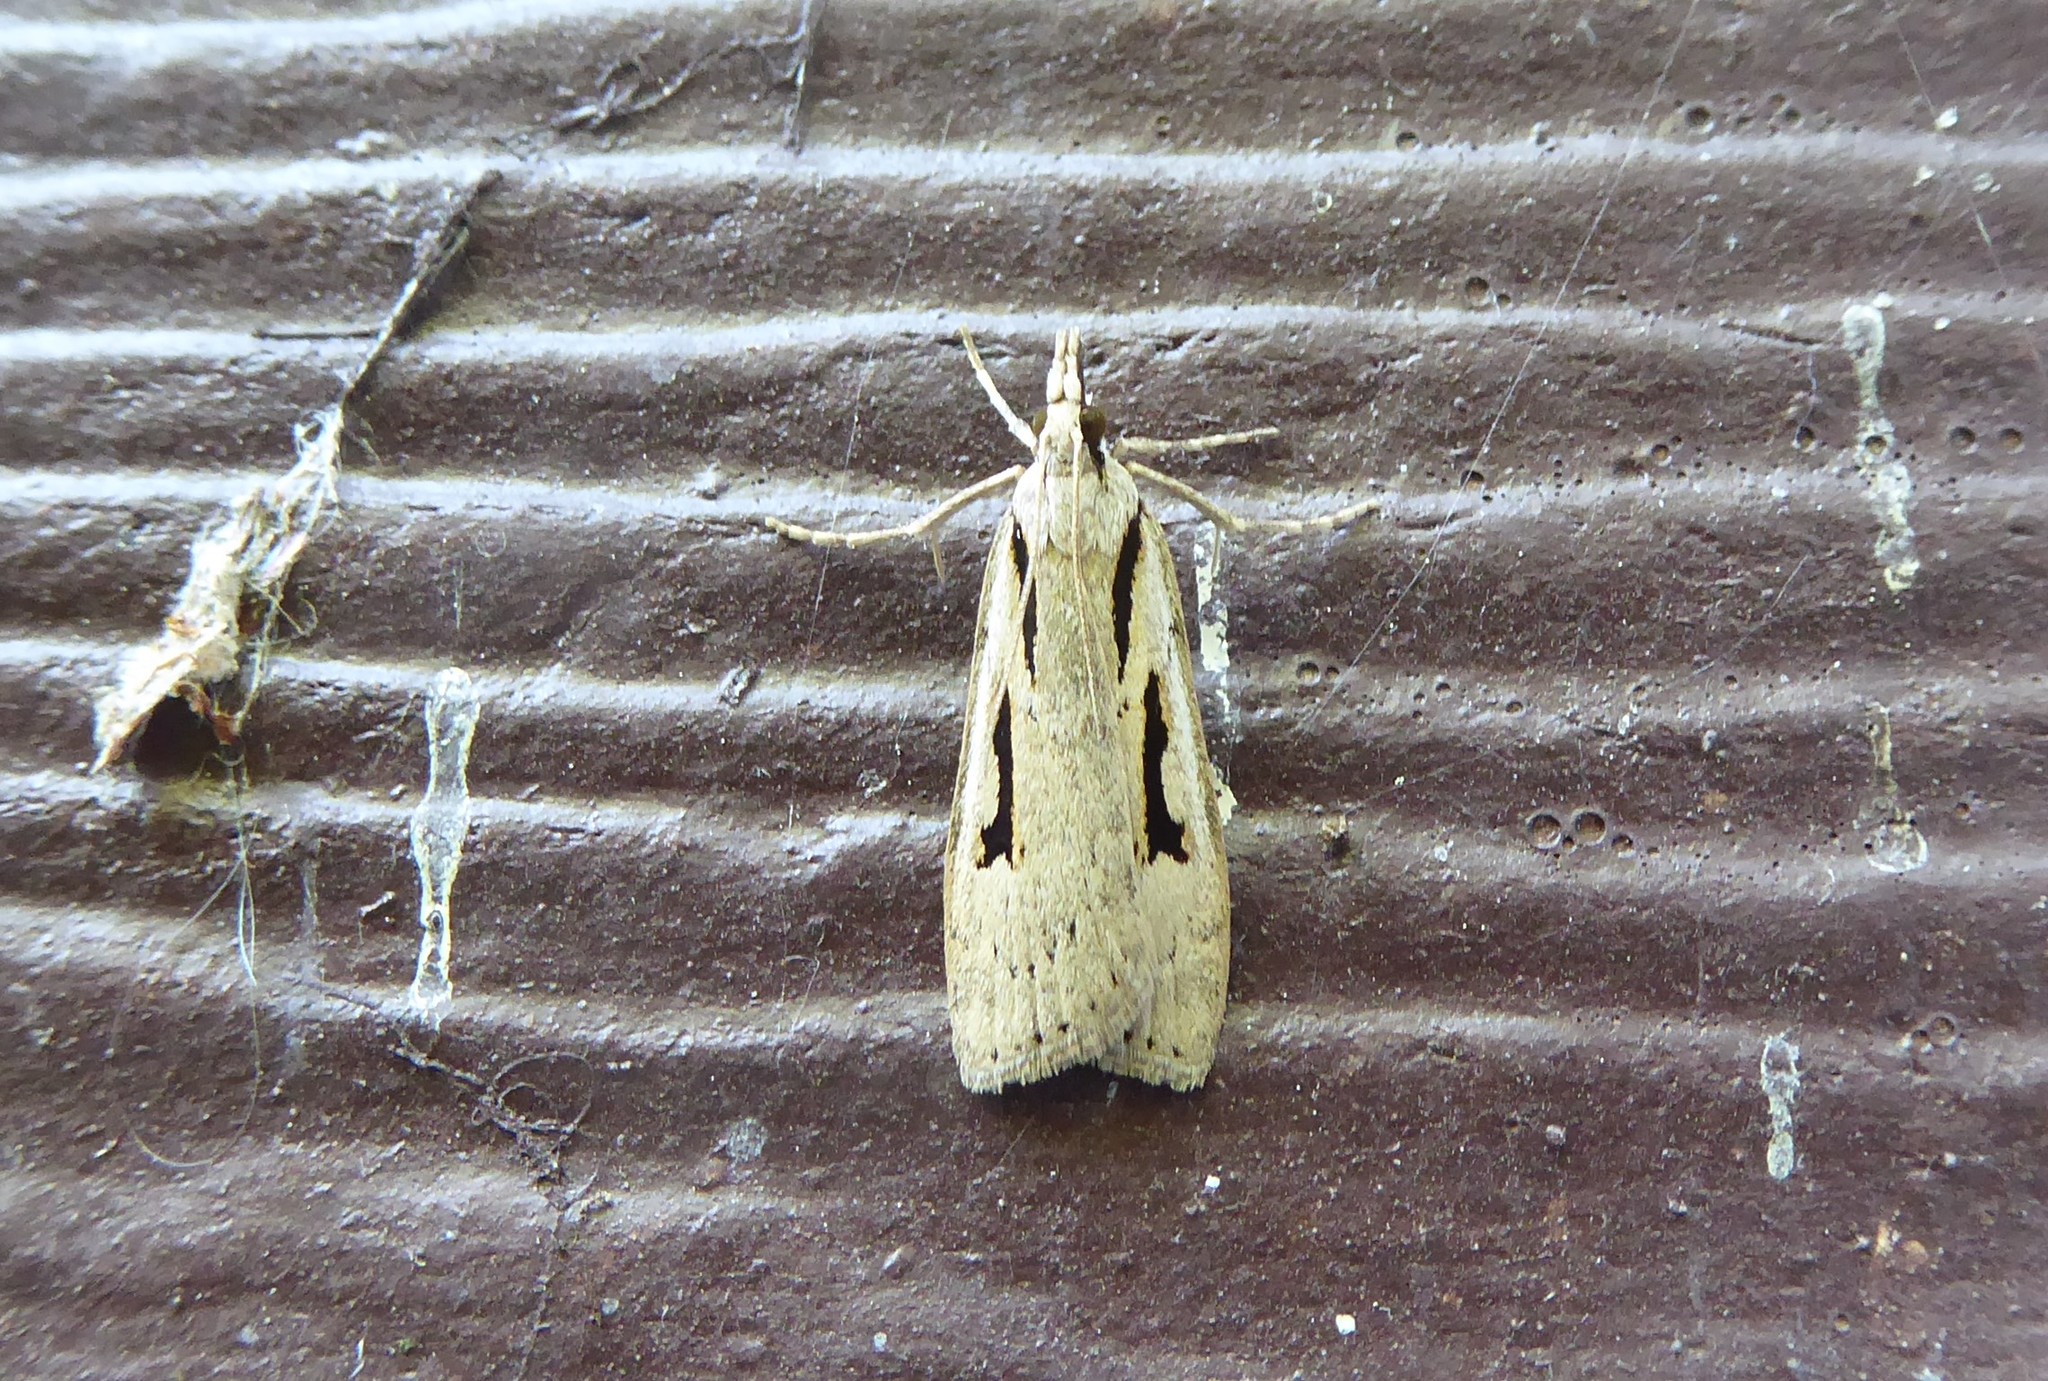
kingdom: Animalia
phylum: Arthropoda
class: Insecta
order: Lepidoptera
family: Crambidae
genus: Scoparia
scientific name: Scoparia rotuellus
